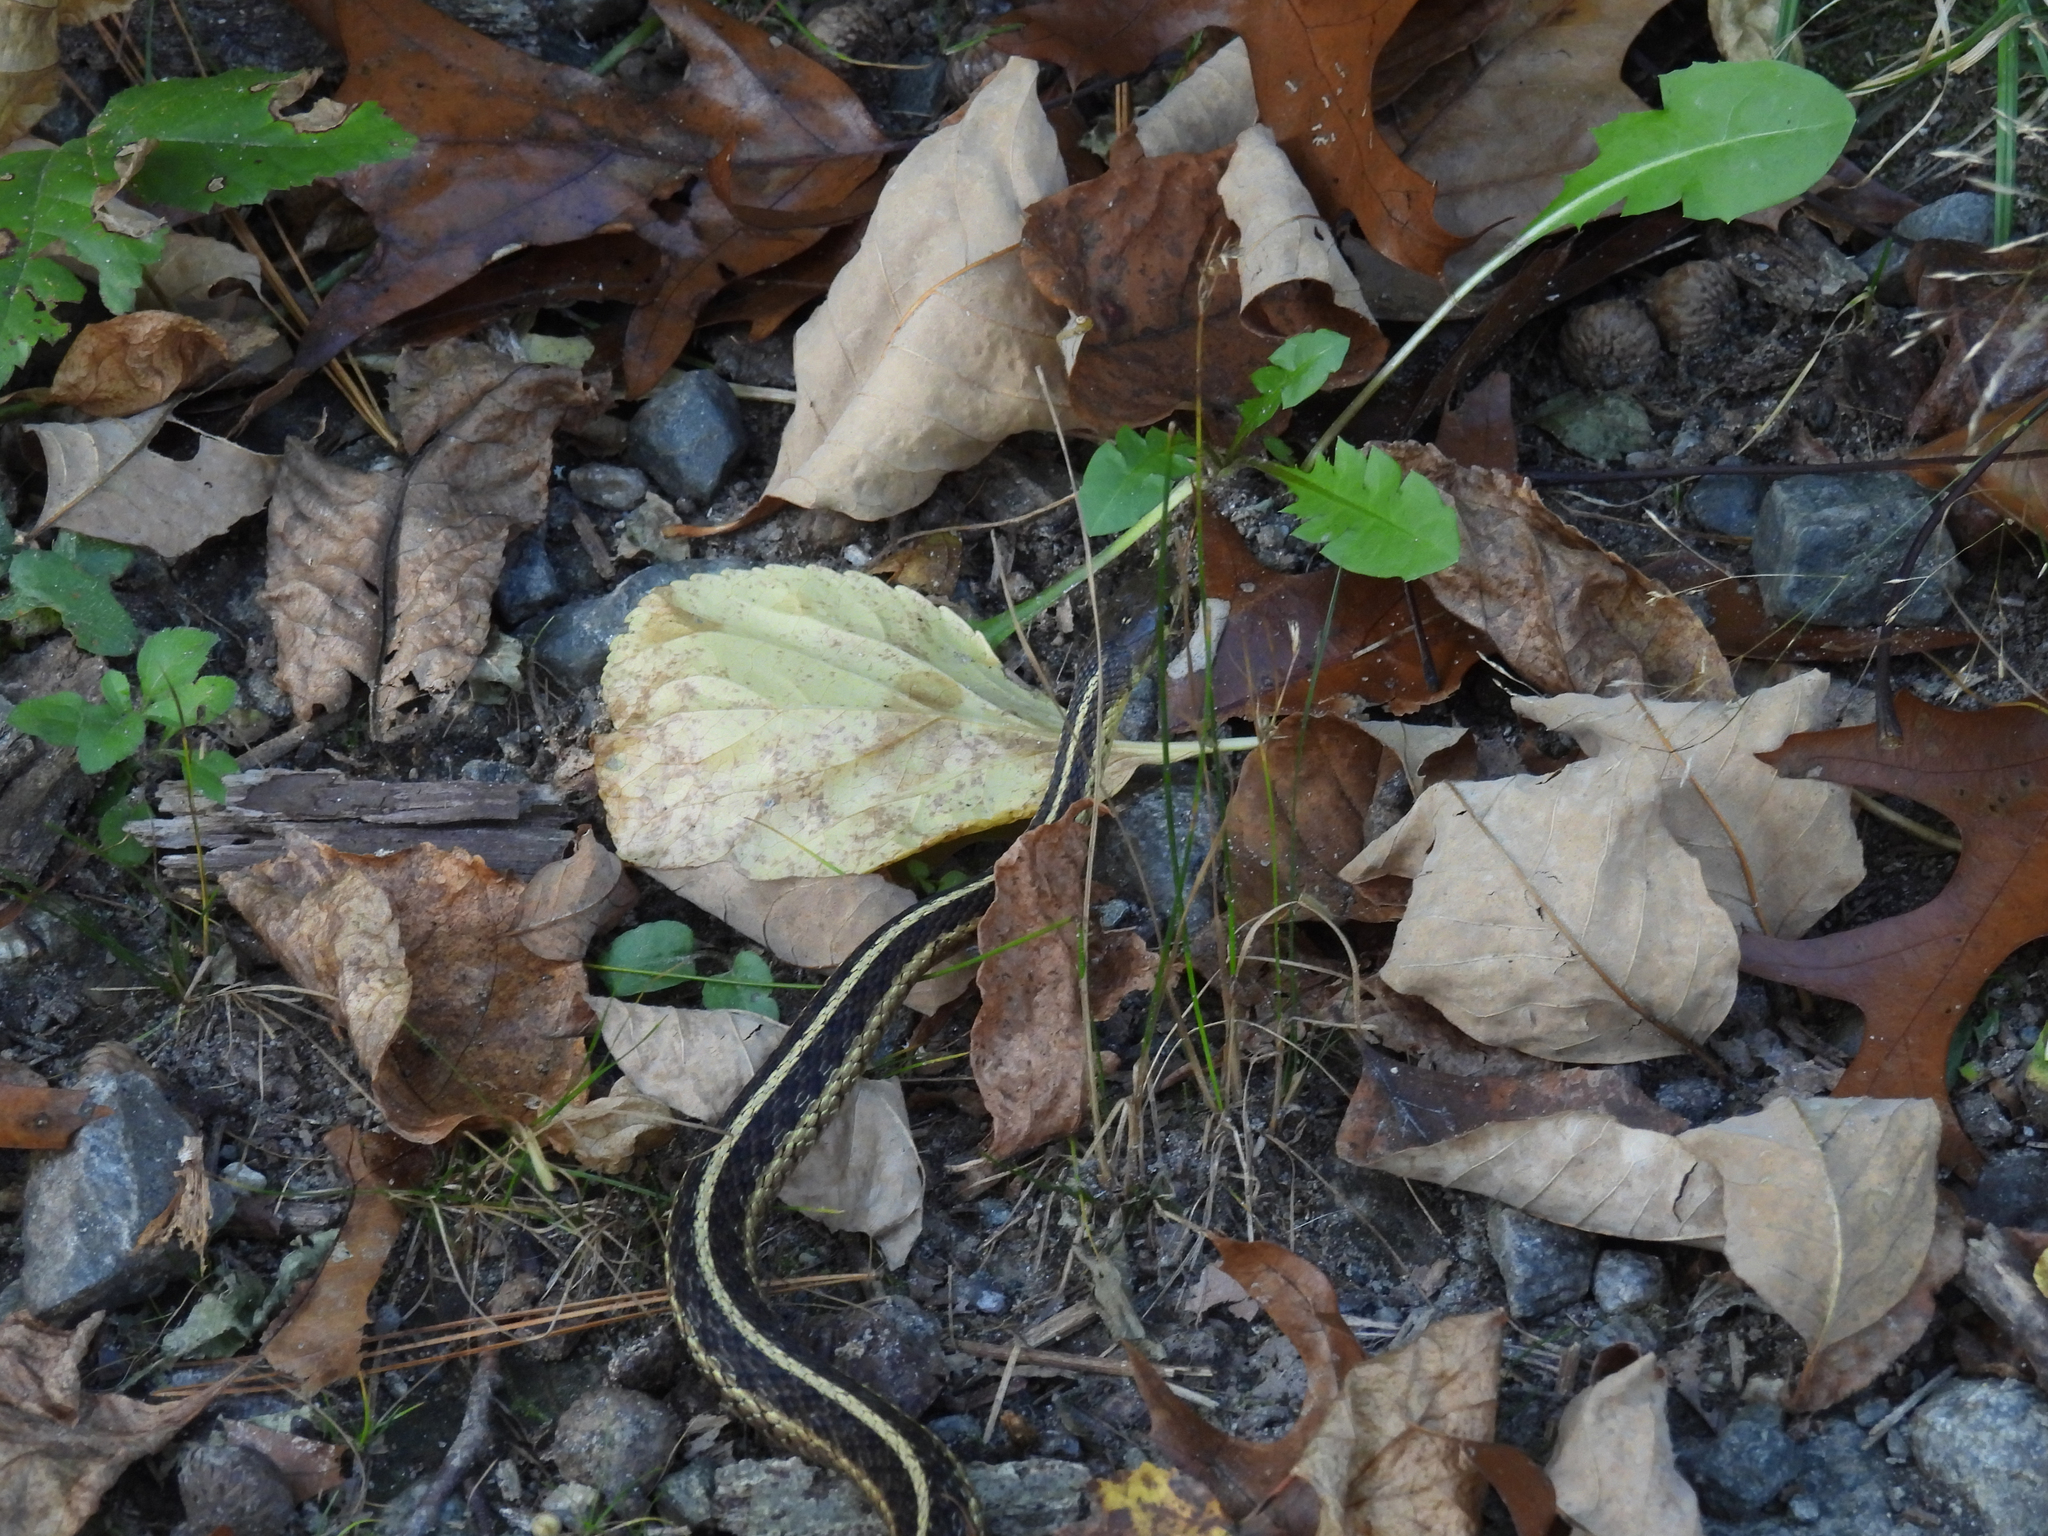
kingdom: Animalia
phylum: Chordata
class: Squamata
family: Colubridae
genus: Thamnophis
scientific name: Thamnophis sirtalis
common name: Common garter snake
